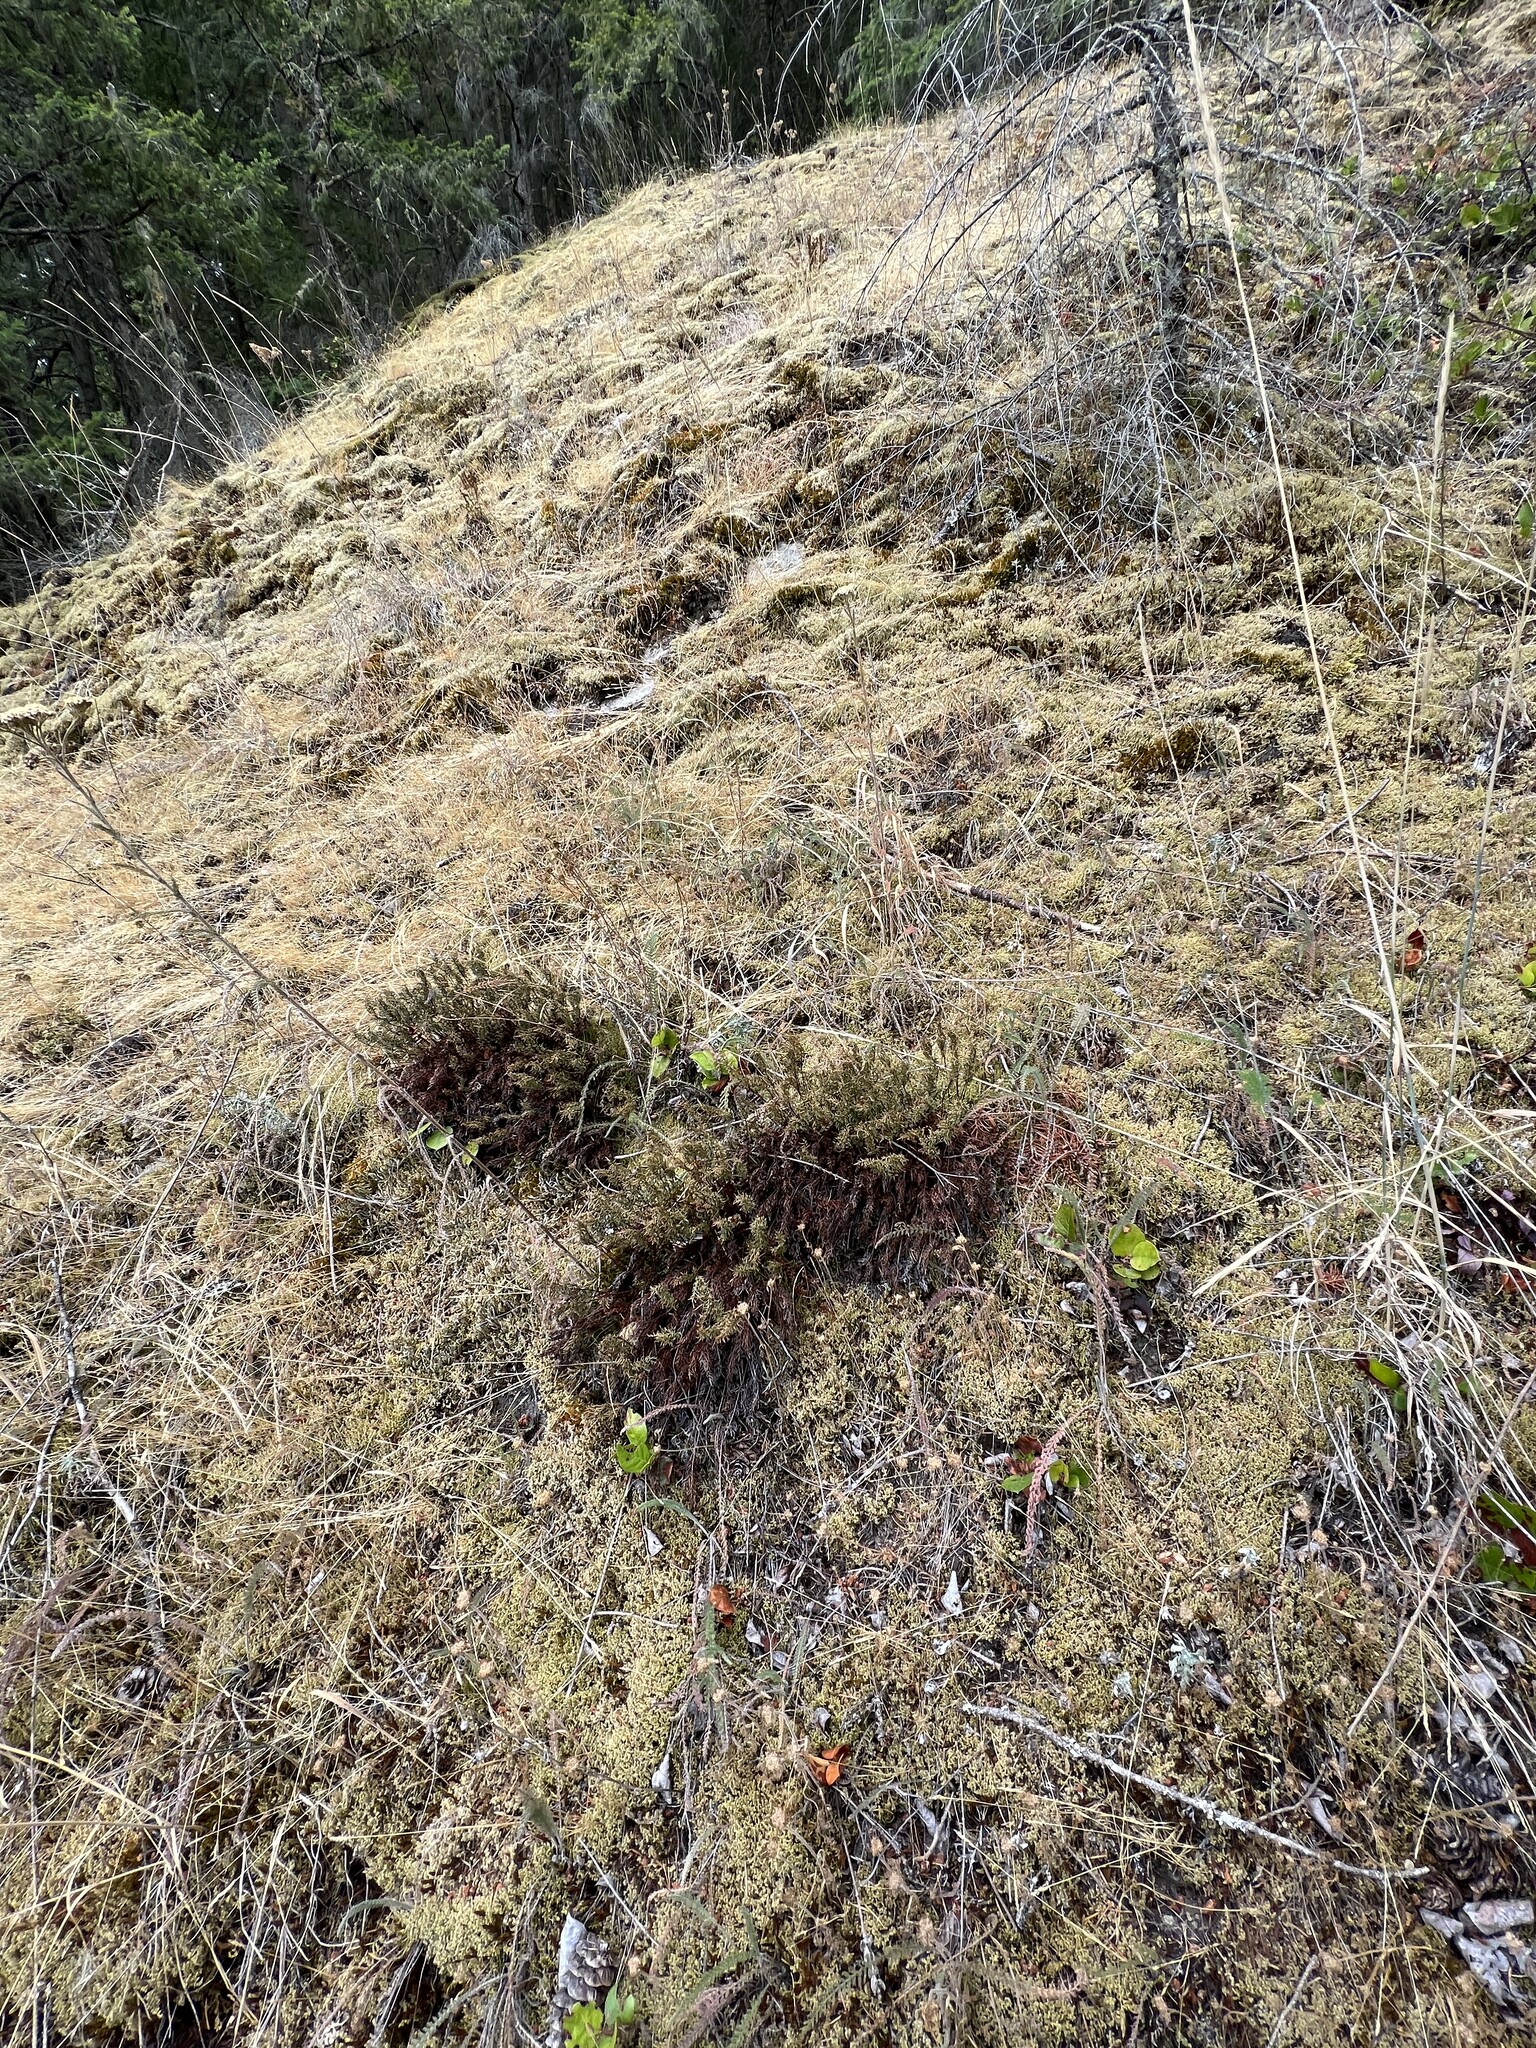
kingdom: Plantae
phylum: Tracheophyta
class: Polypodiopsida
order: Polypodiales
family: Pteridaceae
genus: Aspidotis
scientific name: Aspidotis densa
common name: Indian's dream
